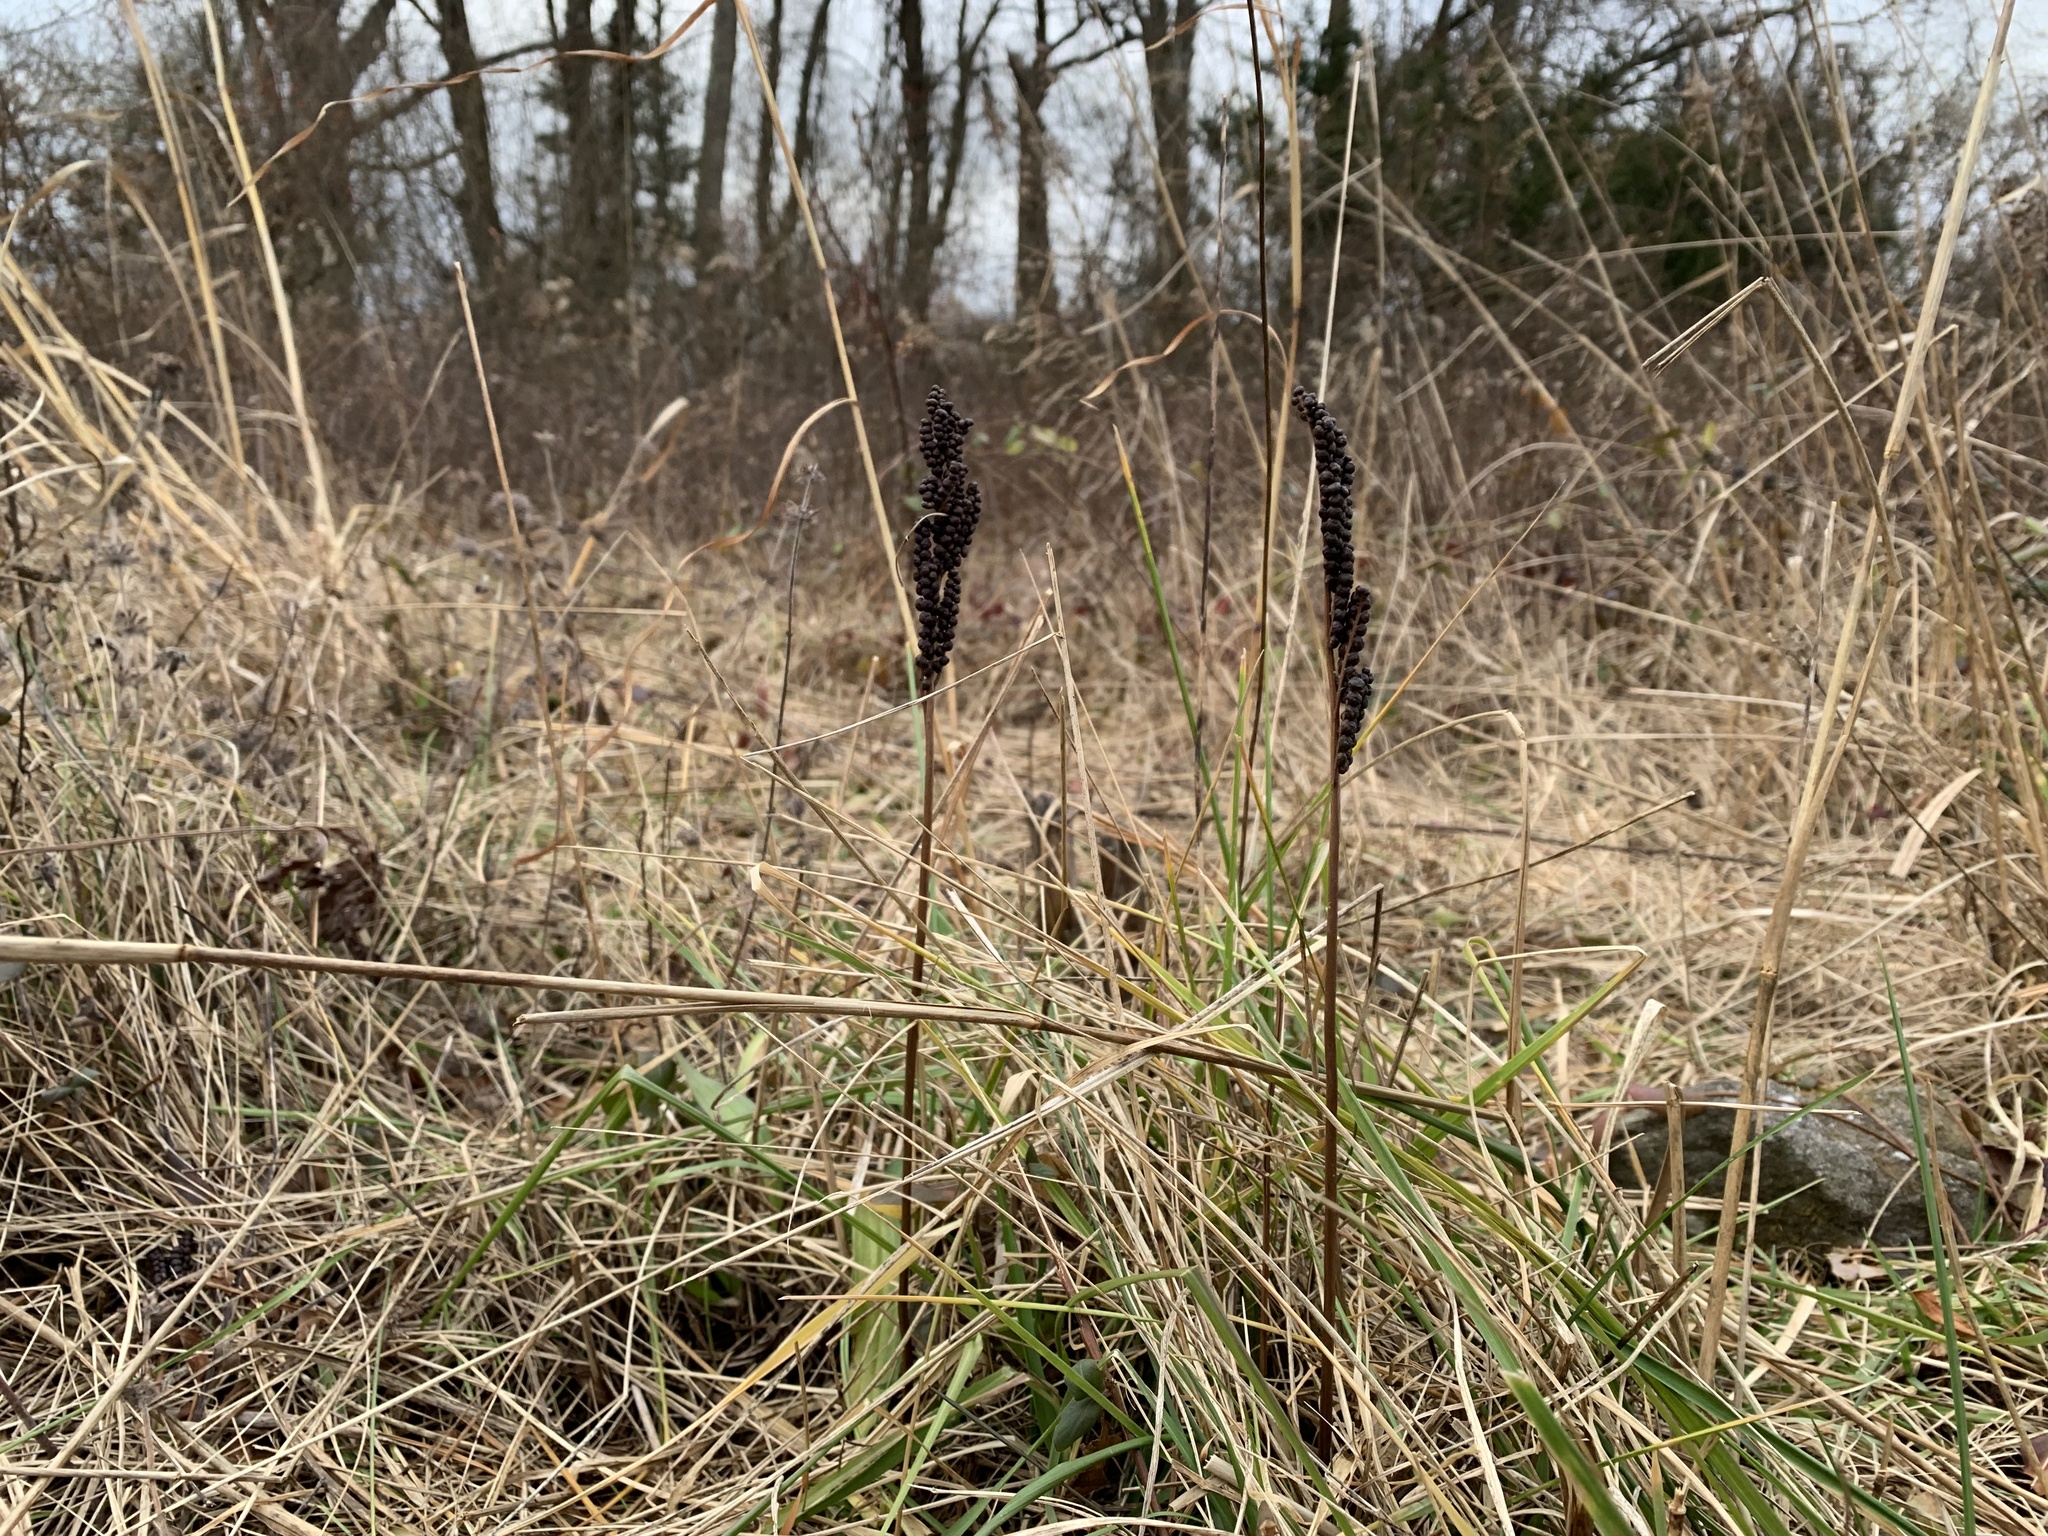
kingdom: Plantae
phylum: Tracheophyta
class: Polypodiopsida
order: Polypodiales
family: Onocleaceae
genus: Onoclea
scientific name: Onoclea sensibilis
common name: Sensitive fern
